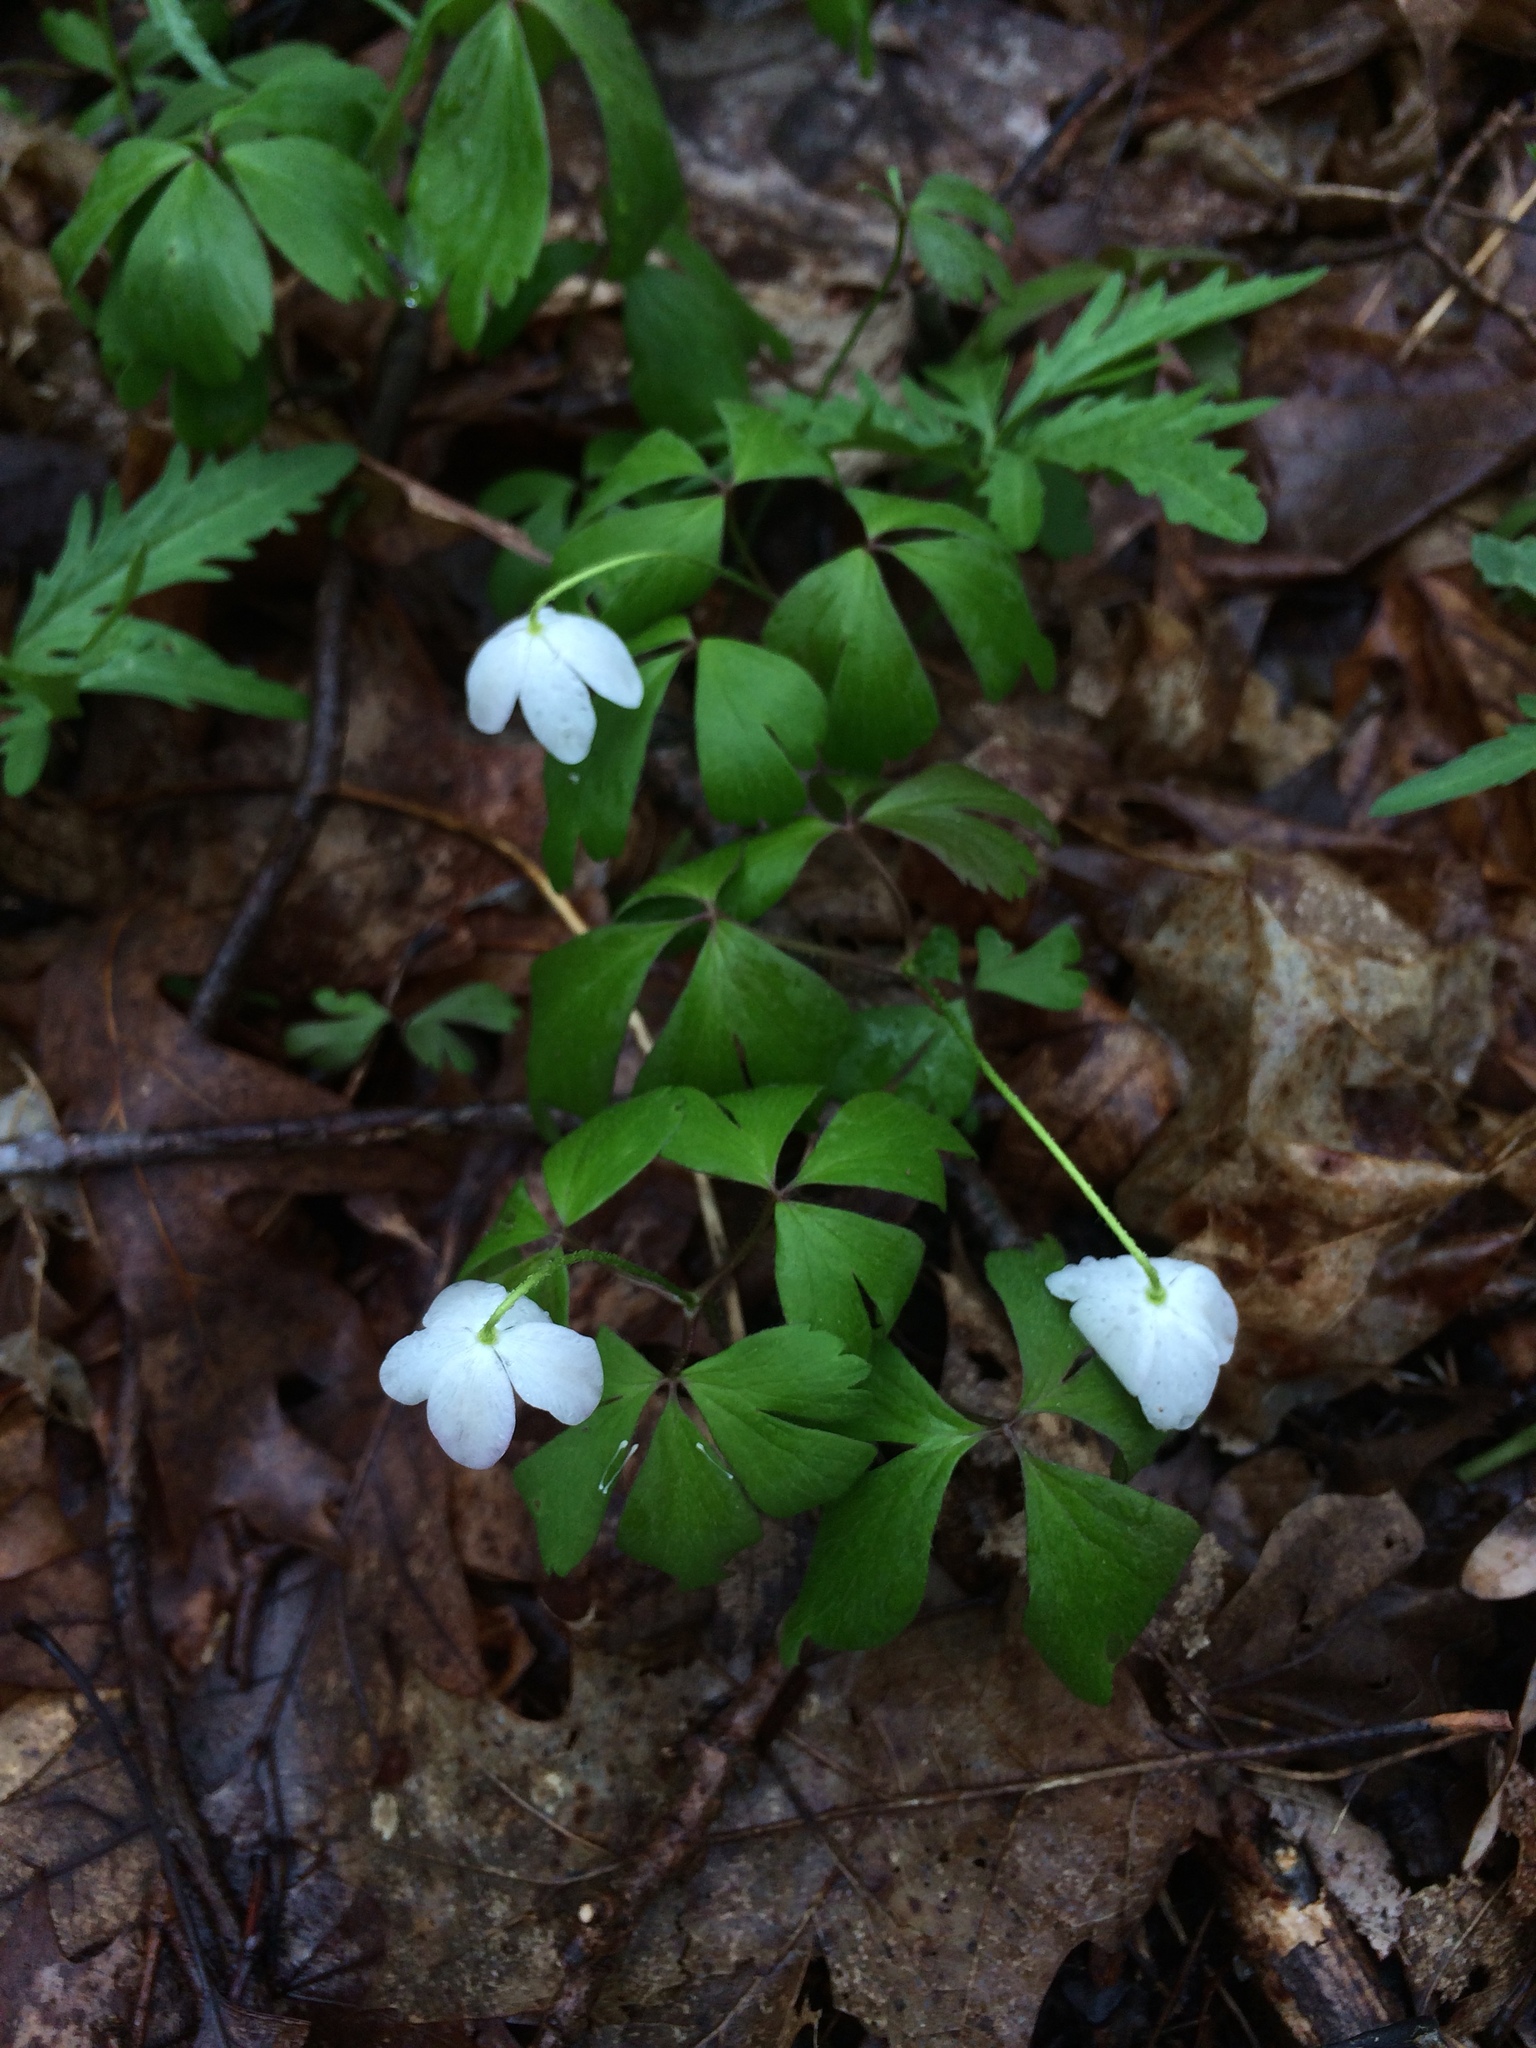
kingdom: Plantae
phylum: Tracheophyta
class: Magnoliopsida
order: Ranunculales
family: Ranunculaceae
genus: Anemone
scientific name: Anemone quinquefolia
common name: Wood anemone
